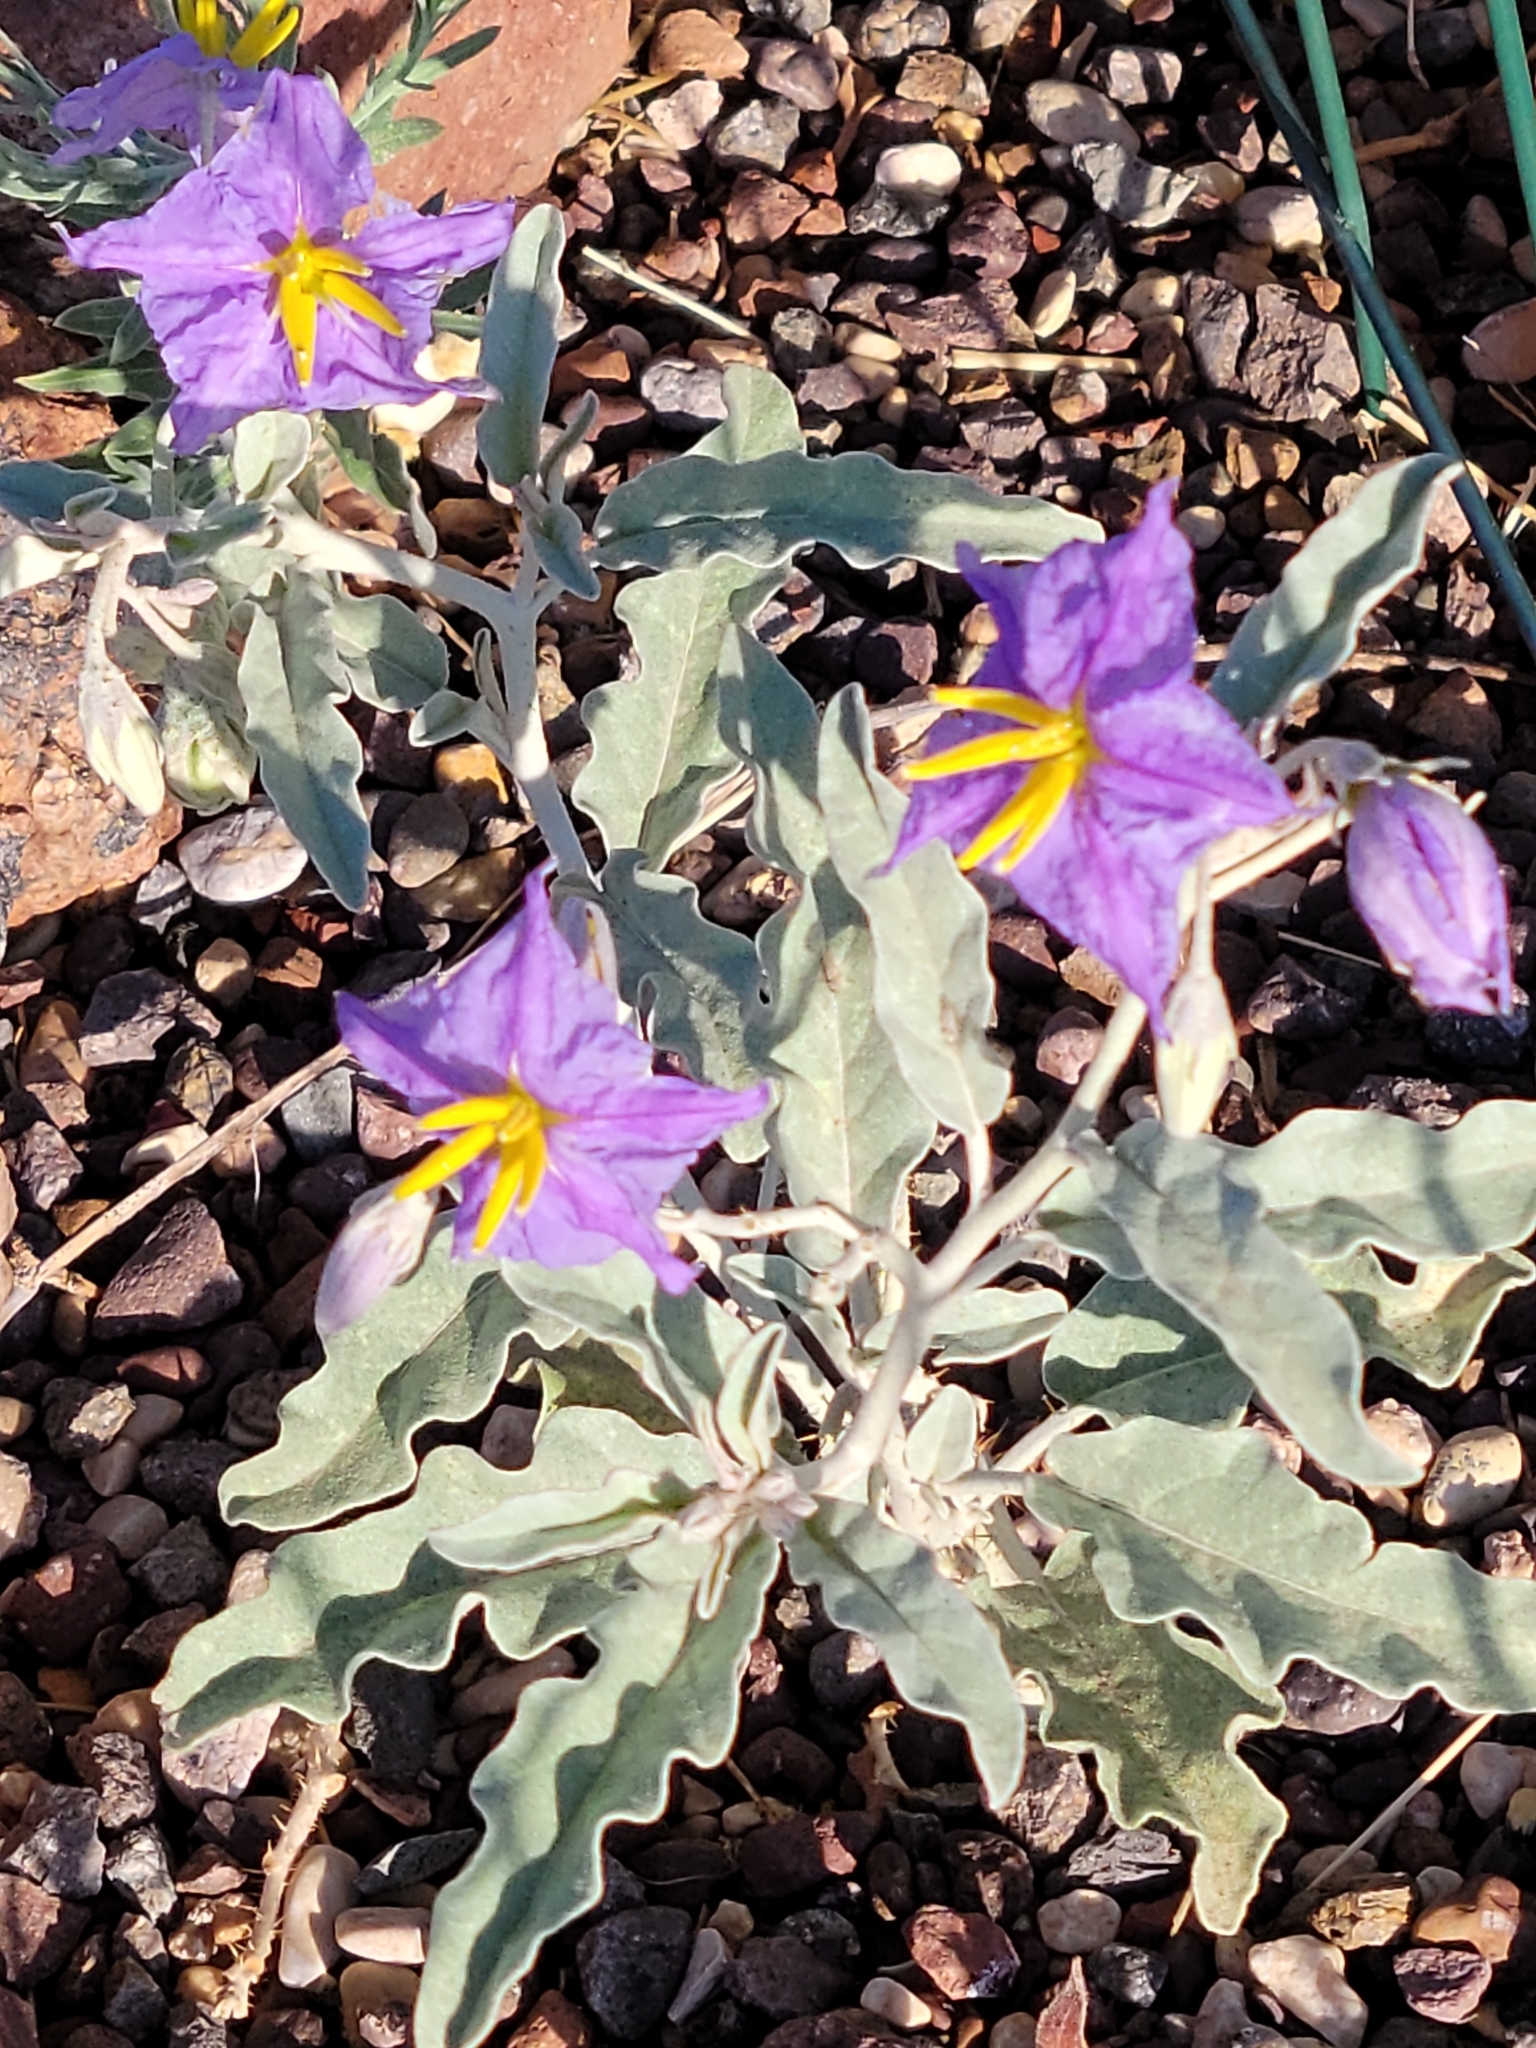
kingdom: Plantae
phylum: Tracheophyta
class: Magnoliopsida
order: Solanales
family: Solanaceae
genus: Solanum
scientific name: Solanum elaeagnifolium
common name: Silverleaf nightshade
